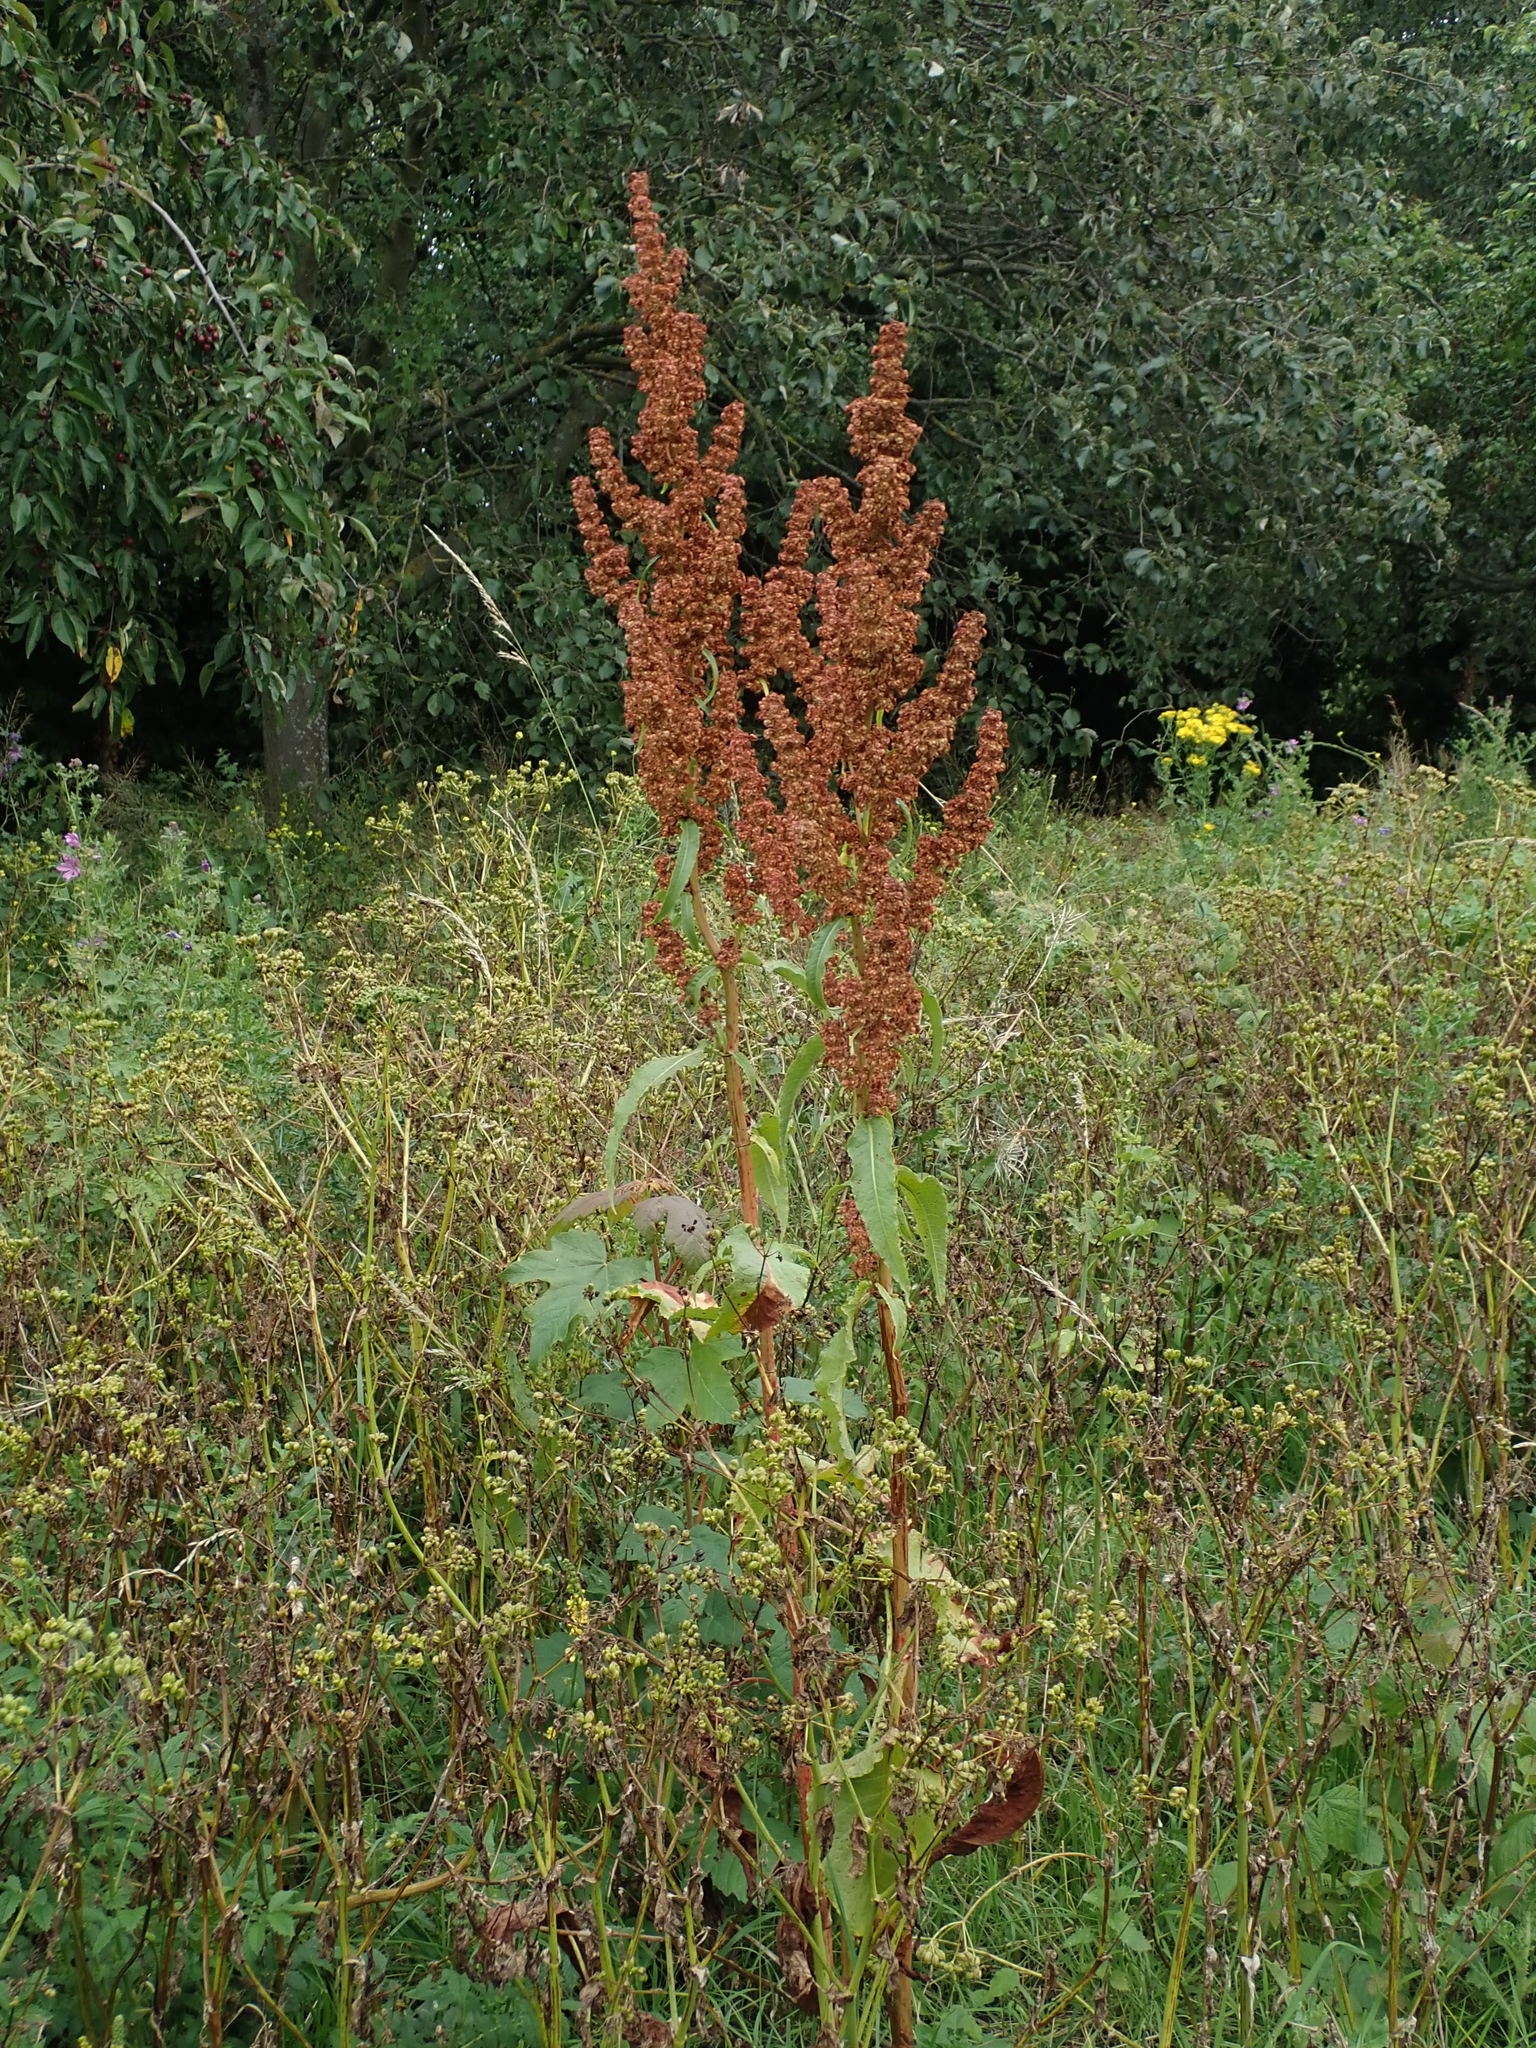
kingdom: Plantae
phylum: Tracheophyta
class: Magnoliopsida
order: Caryophyllales
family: Polygonaceae
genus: Rumex
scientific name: Rumex cristatus
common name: Greek dock
